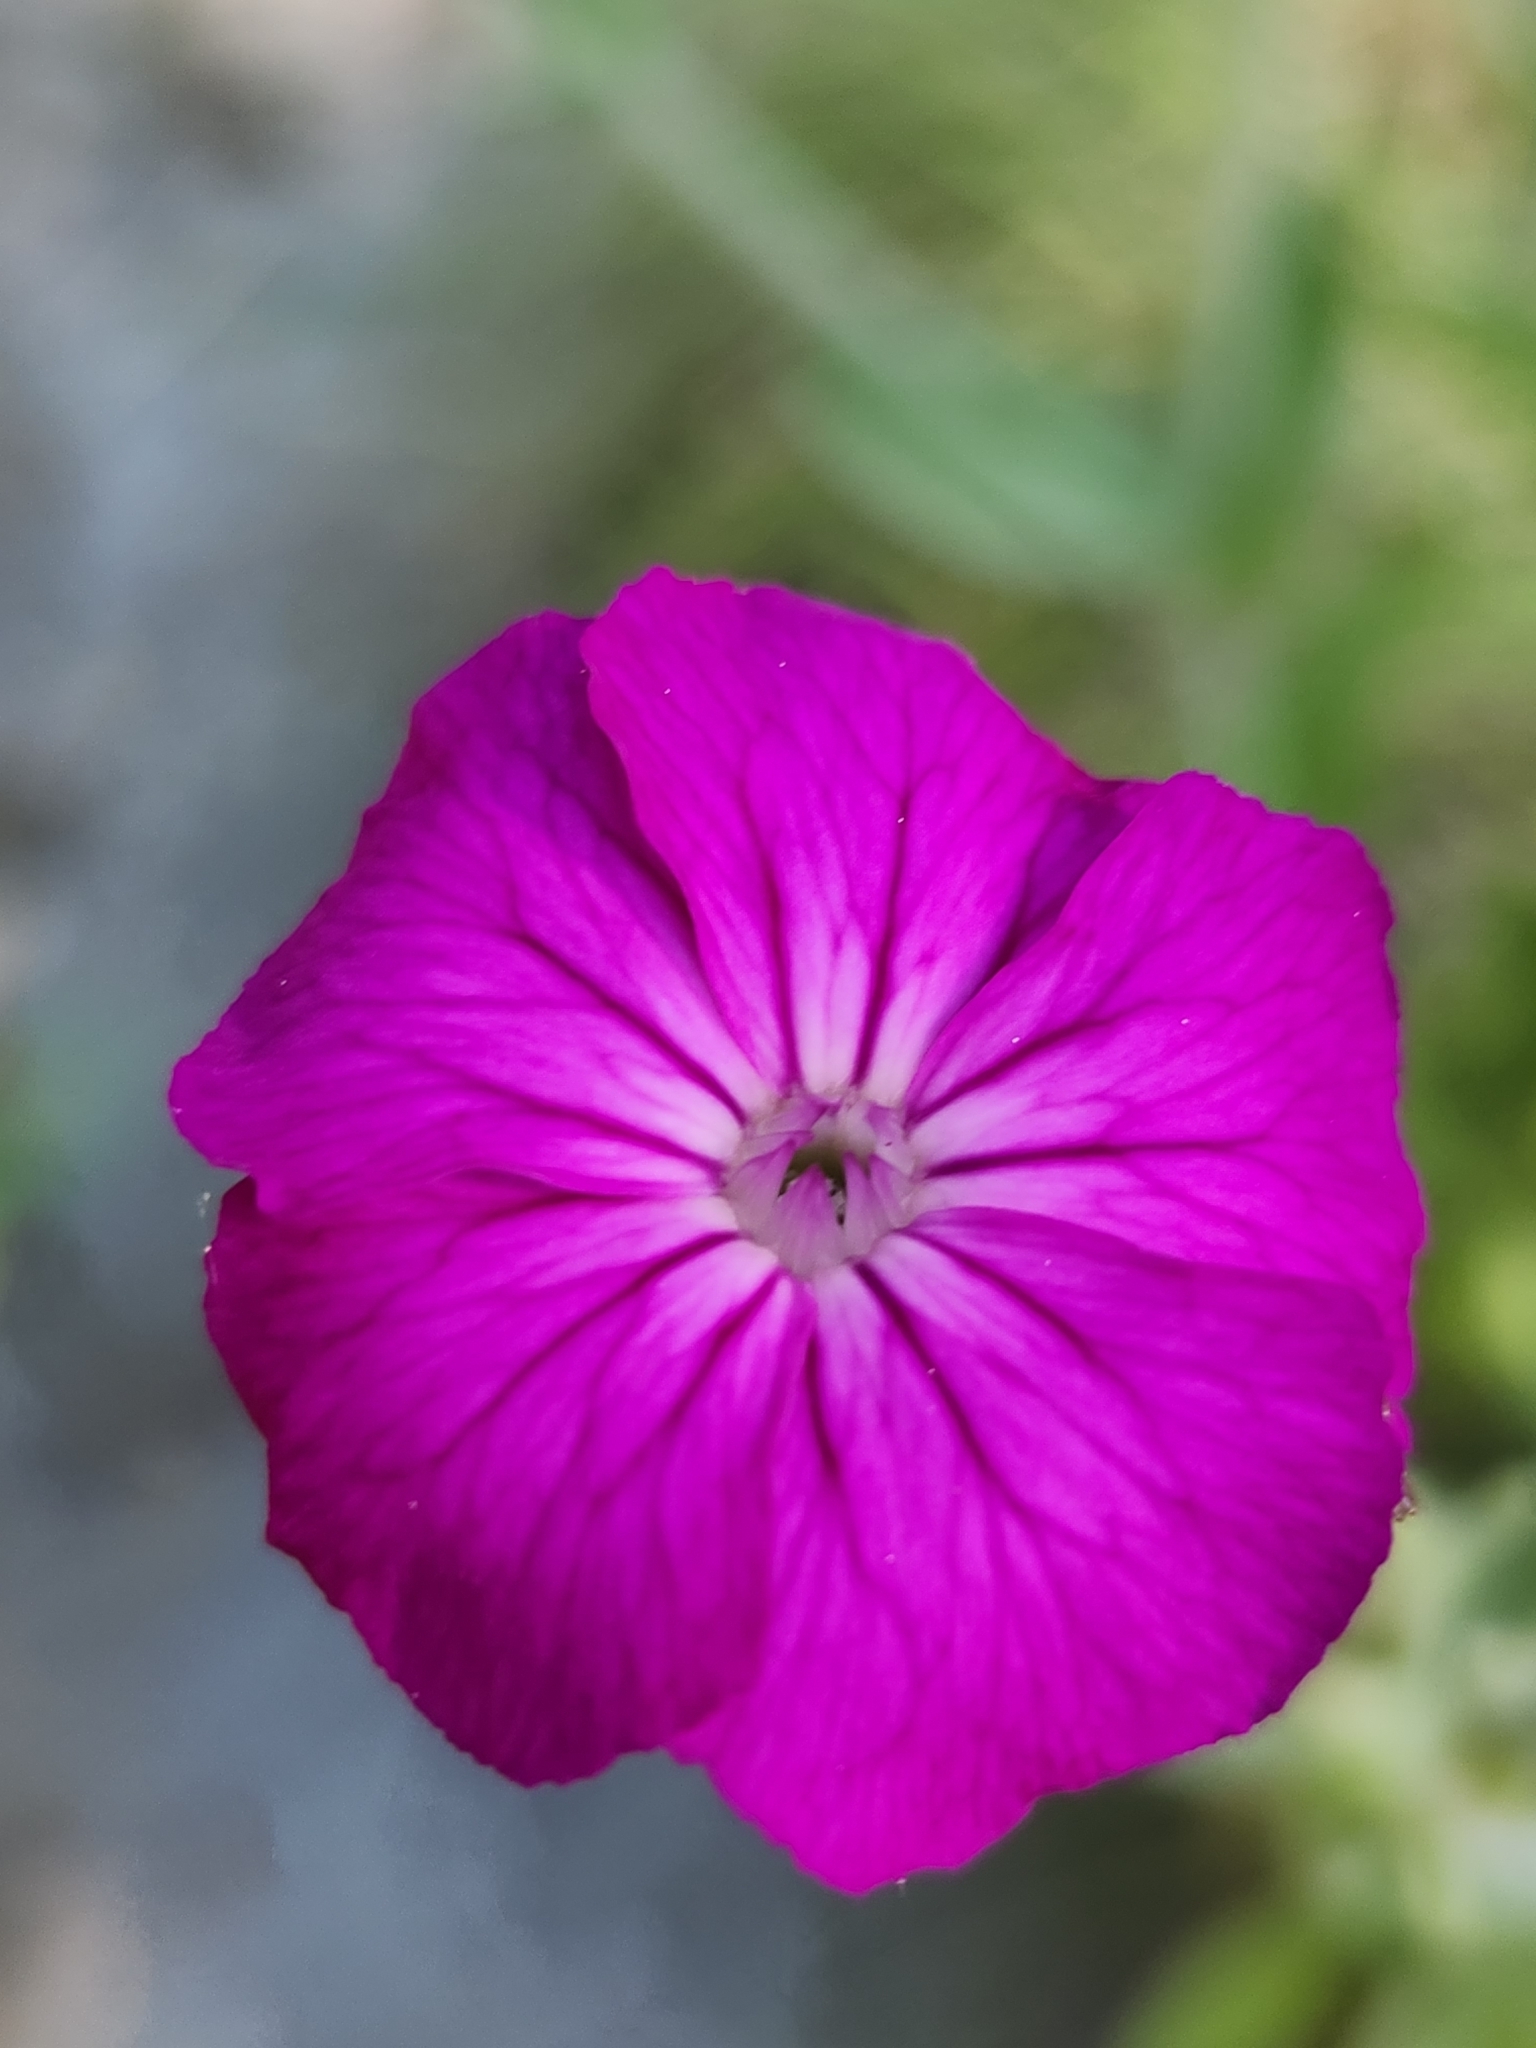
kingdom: Plantae
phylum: Tracheophyta
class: Magnoliopsida
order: Caryophyllales
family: Caryophyllaceae
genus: Silene
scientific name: Silene coronaria
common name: Rose campion
